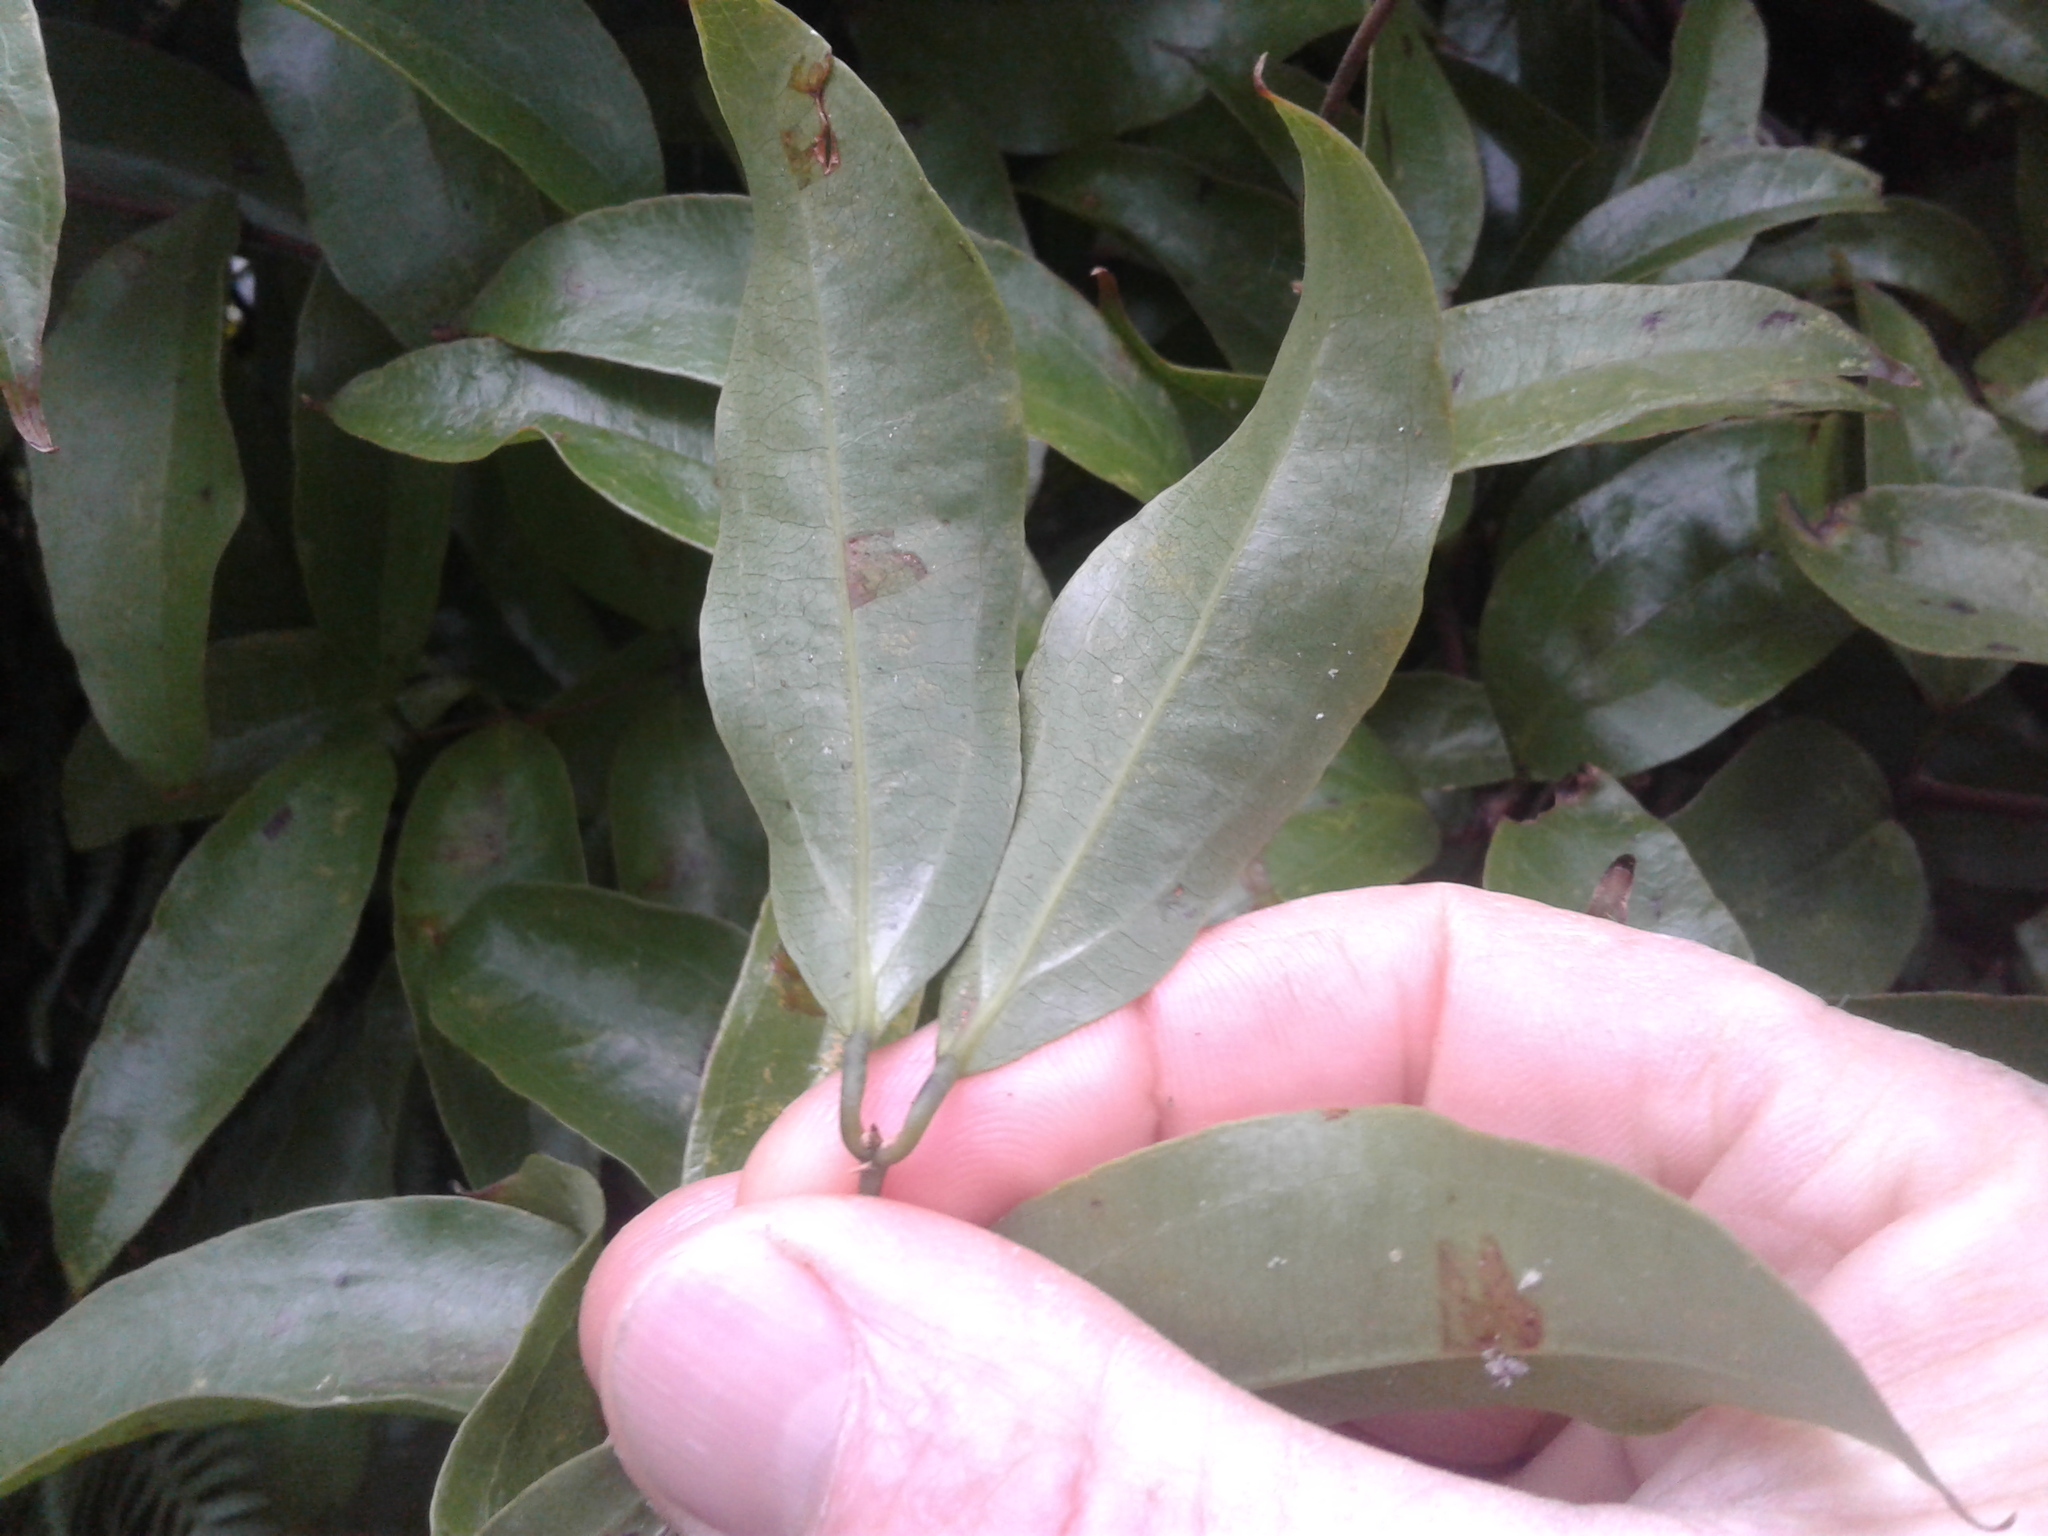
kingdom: Plantae
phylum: Tracheophyta
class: Liliopsida
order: Liliales
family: Ripogonaceae
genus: Ripogonum
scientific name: Ripogonum scandens
